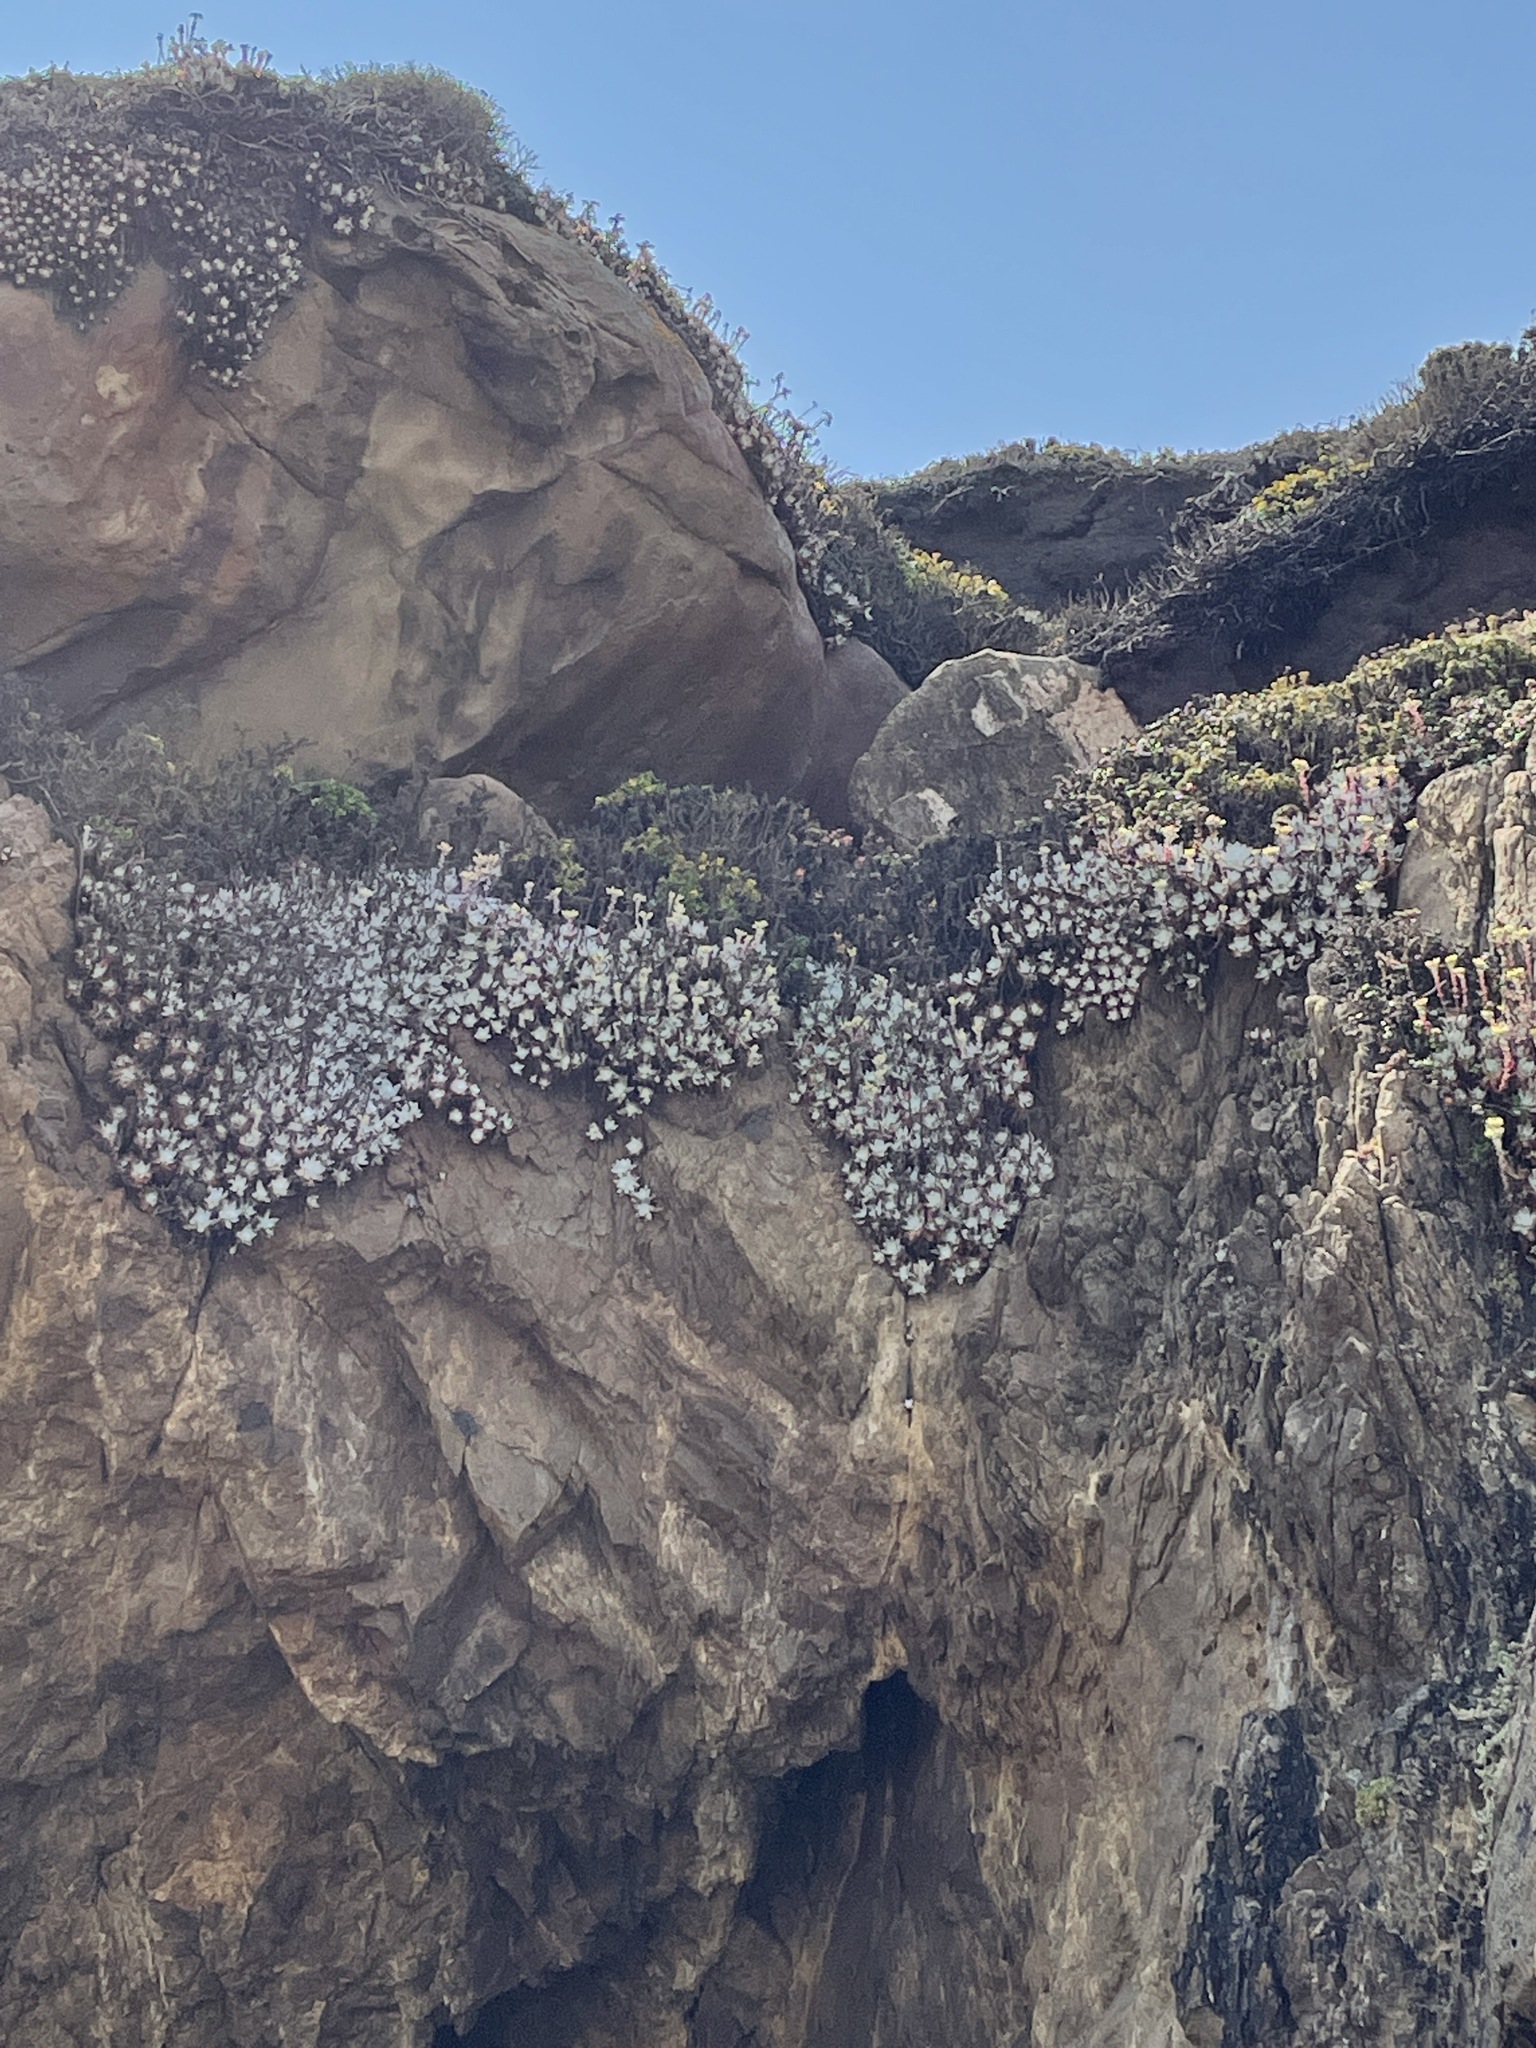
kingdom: Plantae
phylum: Tracheophyta
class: Magnoliopsida
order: Saxifragales
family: Crassulaceae
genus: Dudleya
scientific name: Dudleya farinosa
